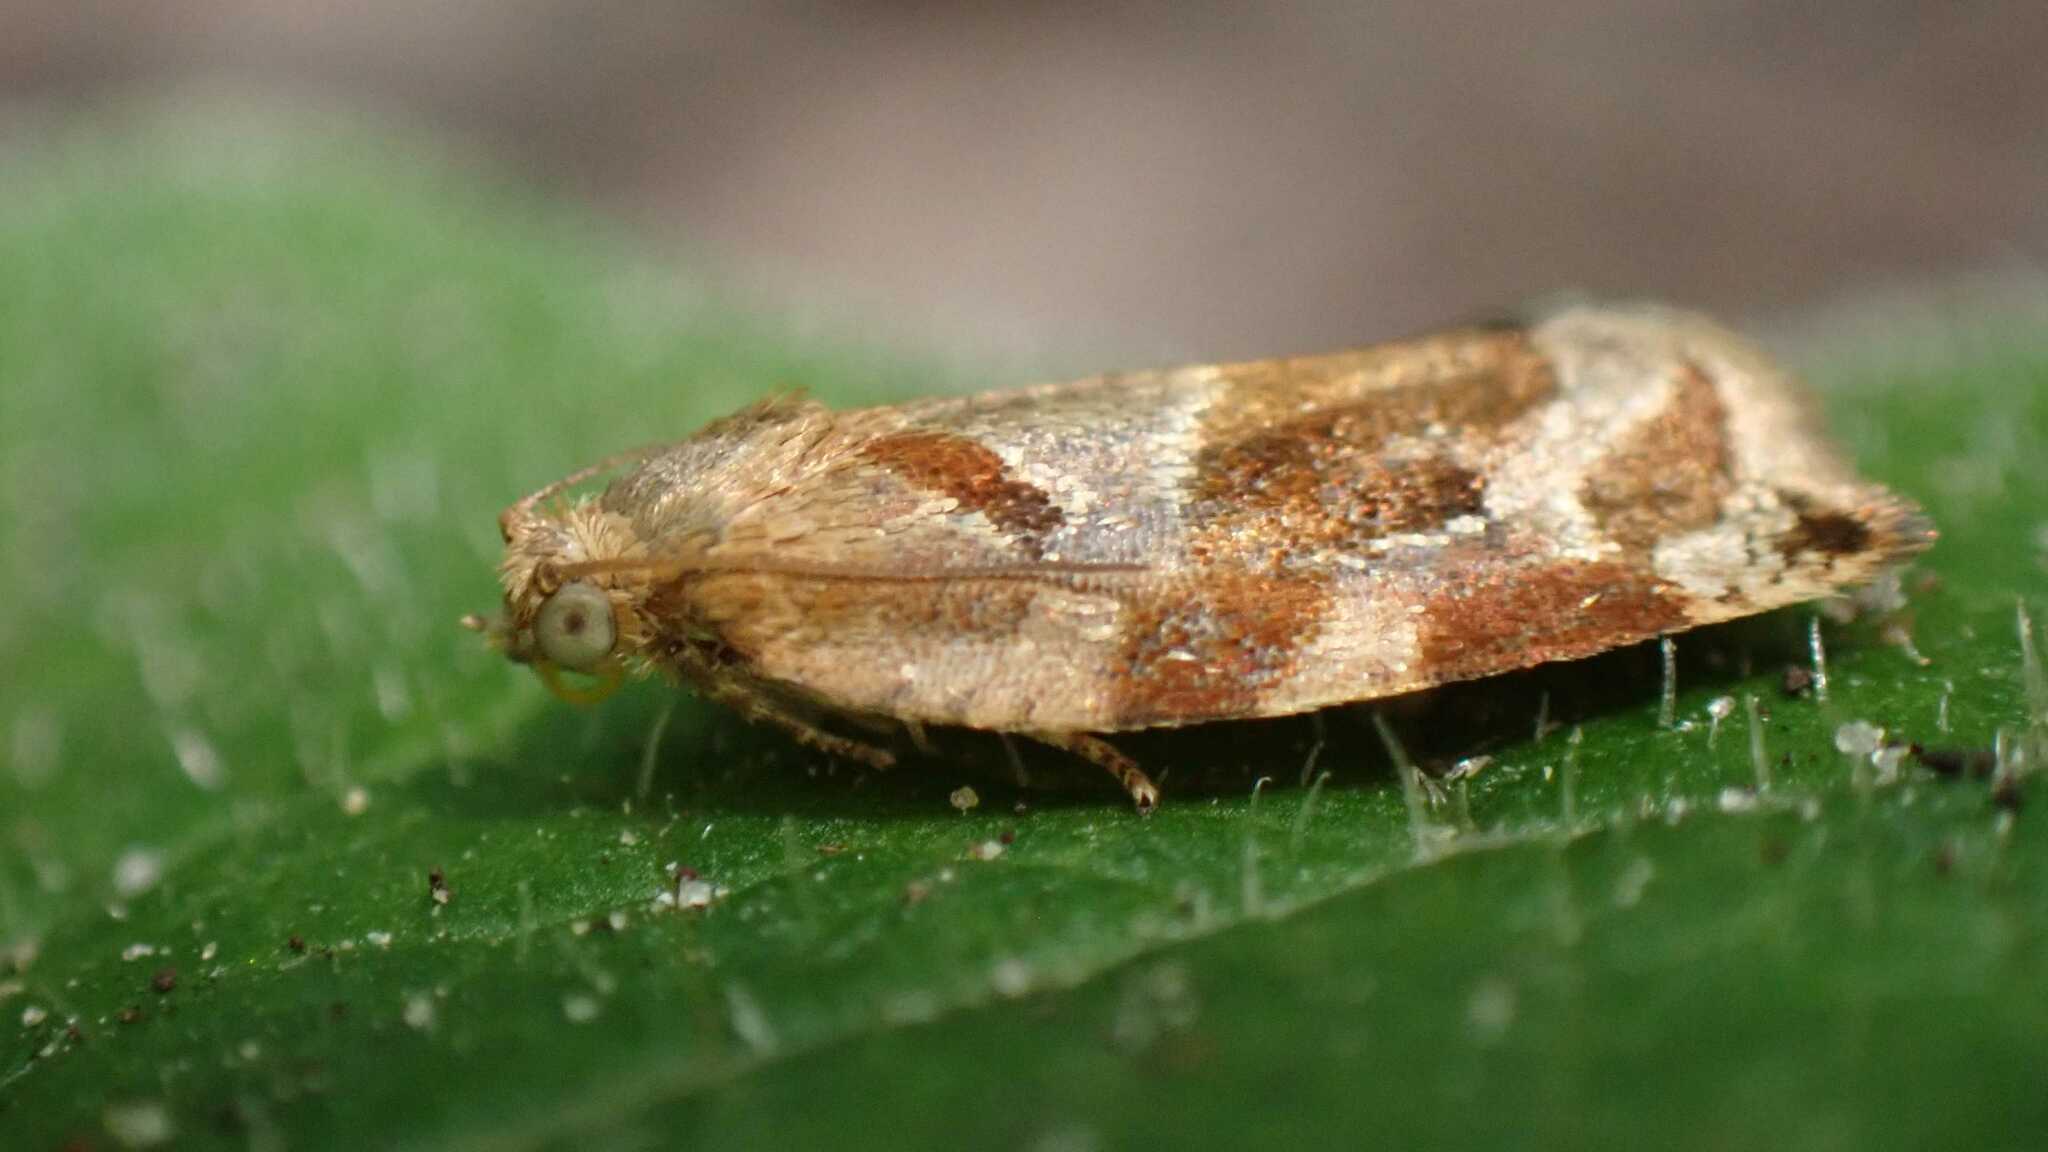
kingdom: Animalia
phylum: Arthropoda
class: Insecta
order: Lepidoptera
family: Tortricidae
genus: Archips
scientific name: Archips xylosteana
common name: Variegated golden tortrix
